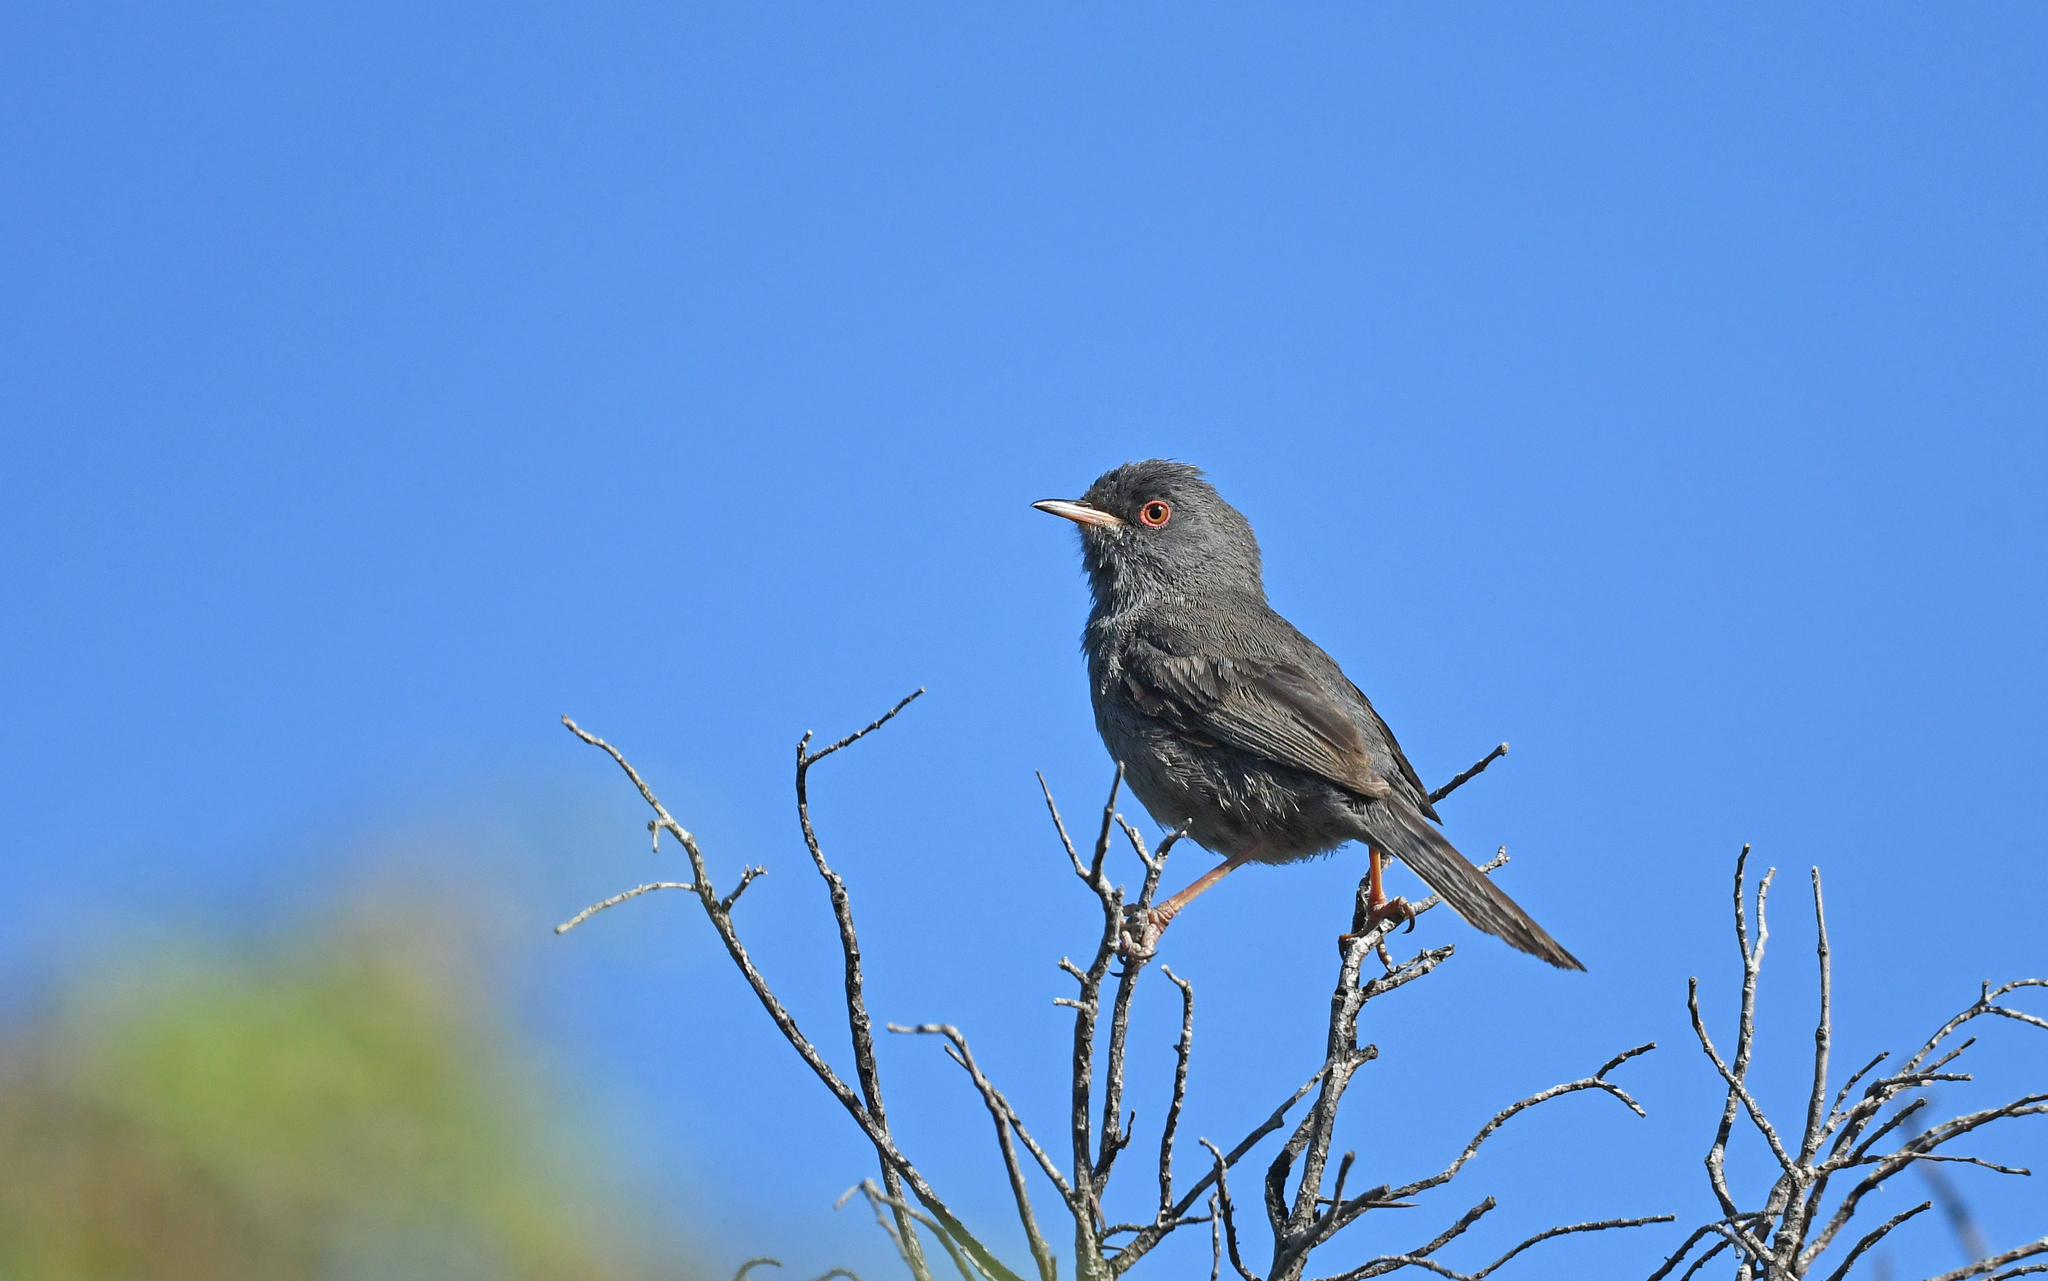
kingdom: Animalia
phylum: Chordata
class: Aves
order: Passeriformes
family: Sylviidae
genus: Sylvia
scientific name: Sylvia sarda
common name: Marmora's warbler
